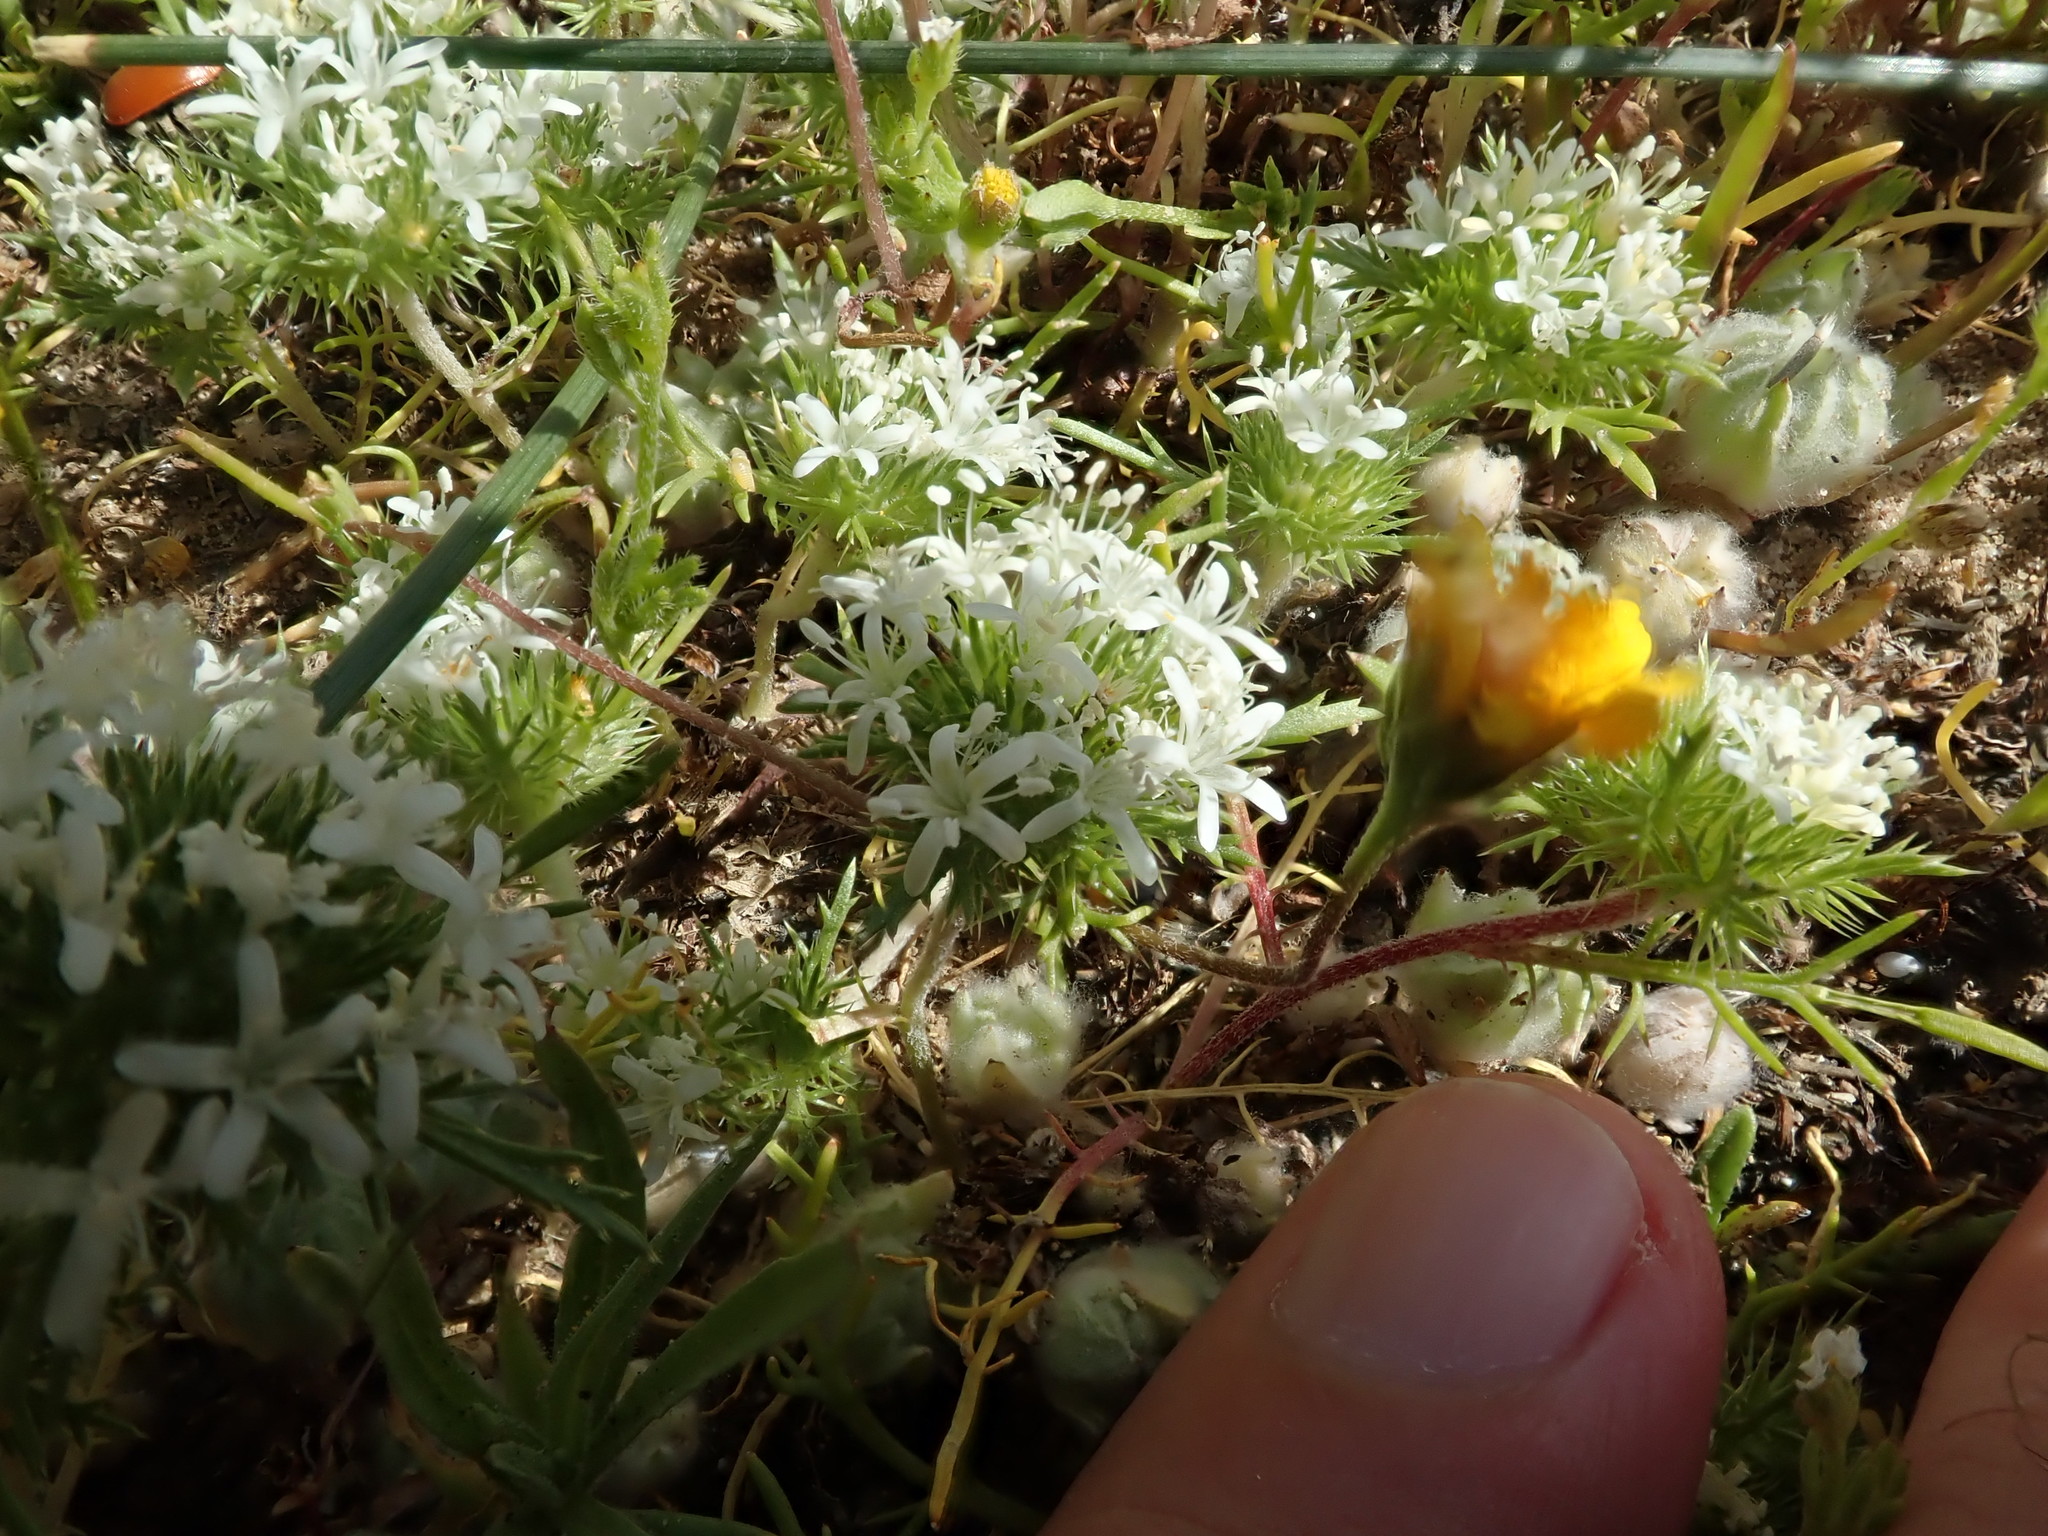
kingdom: Plantae
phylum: Tracheophyta
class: Magnoliopsida
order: Ericales
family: Polemoniaceae
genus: Navarretia
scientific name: Navarretia leucocephala
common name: White-flowered navarretia
